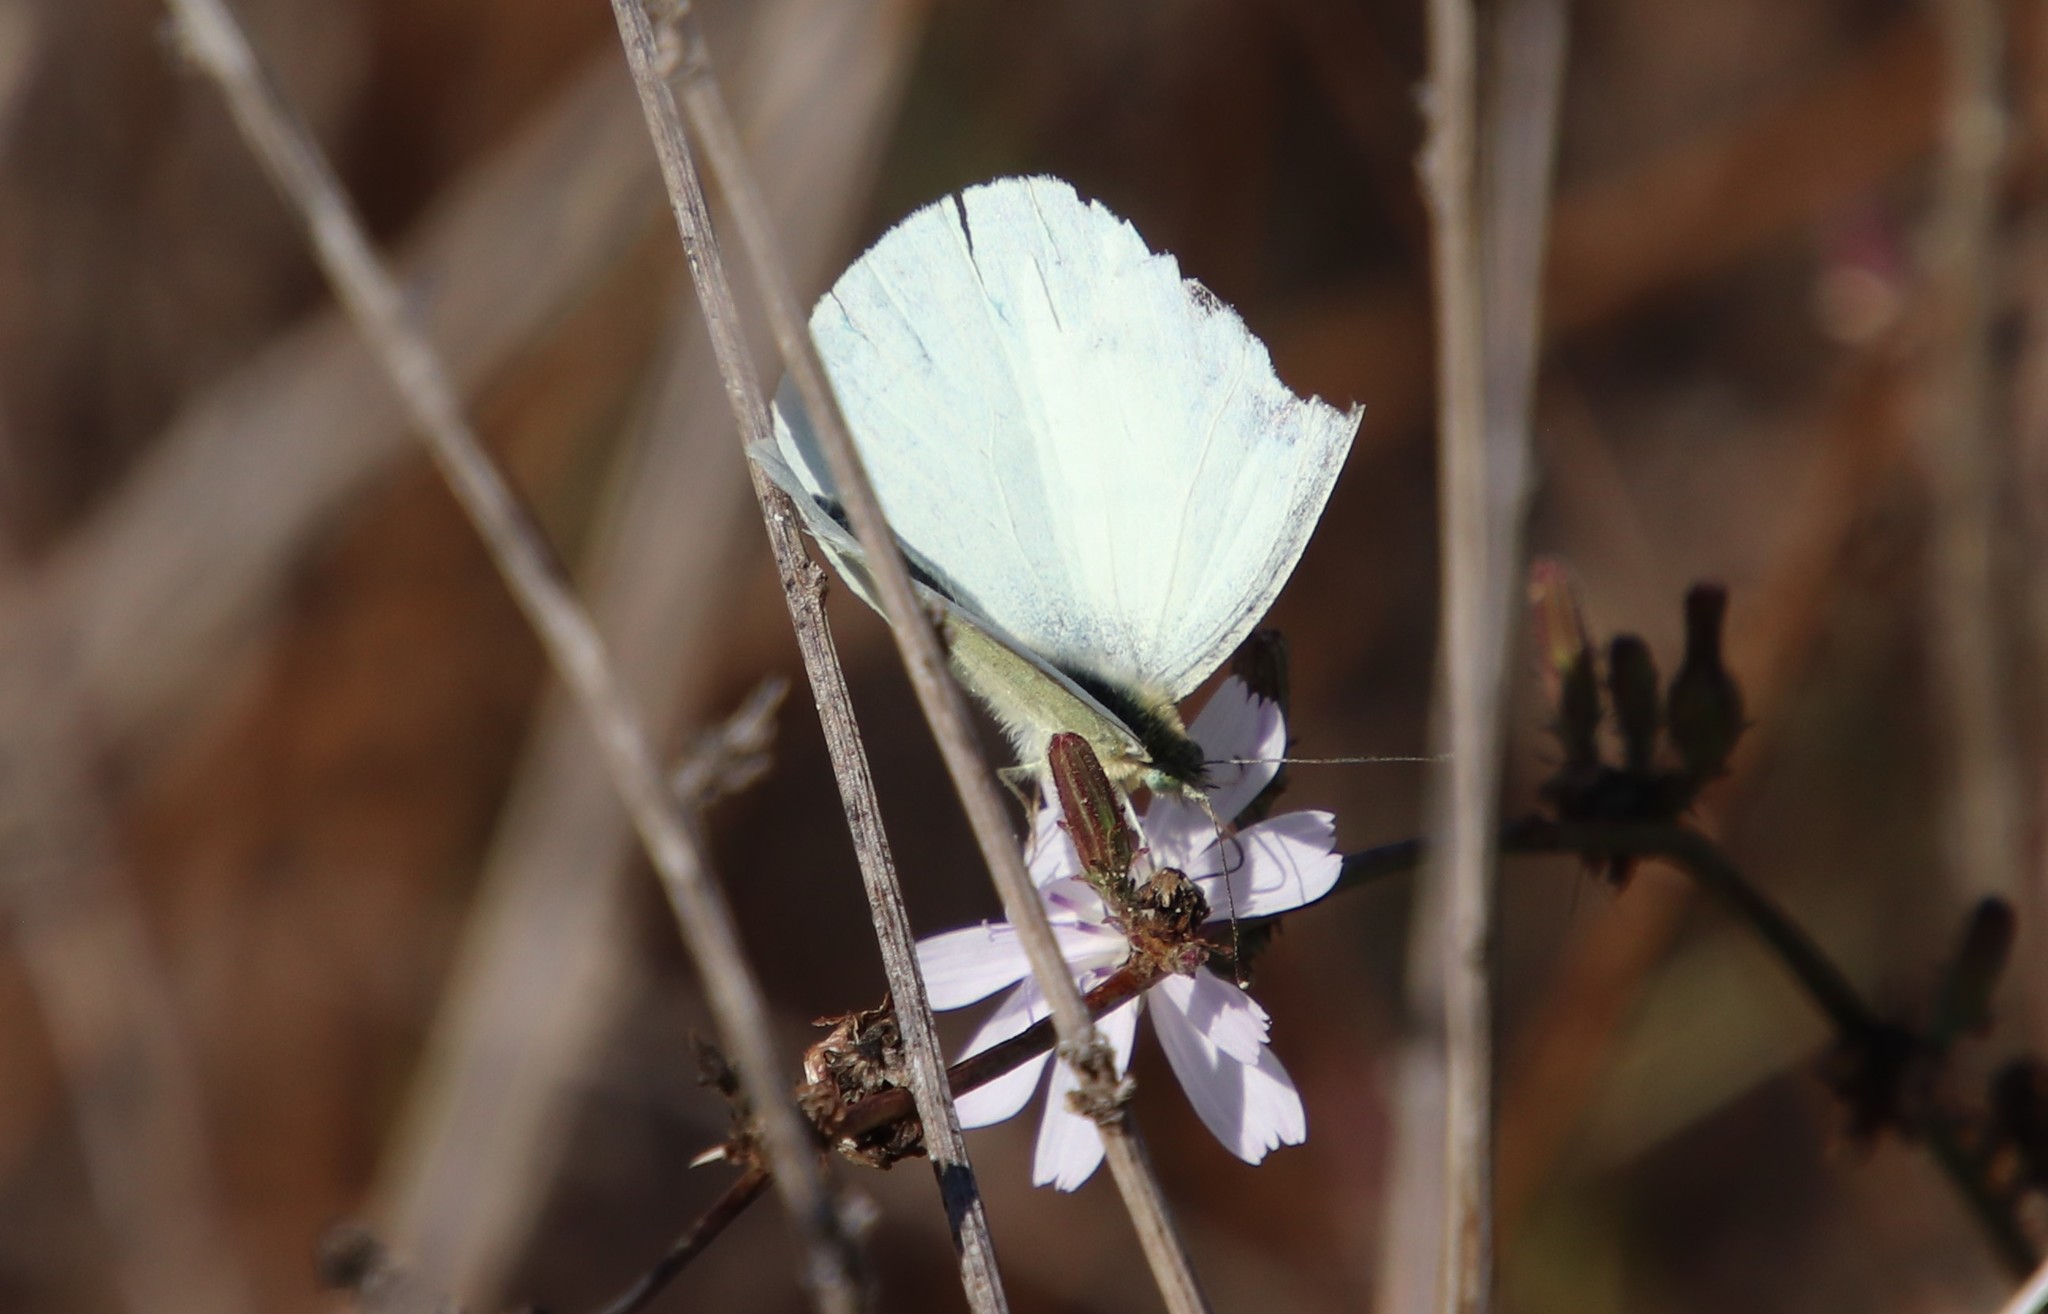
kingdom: Animalia
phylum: Arthropoda
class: Insecta
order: Lepidoptera
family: Pieridae
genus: Pieris
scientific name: Pieris rapae
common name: Small white
